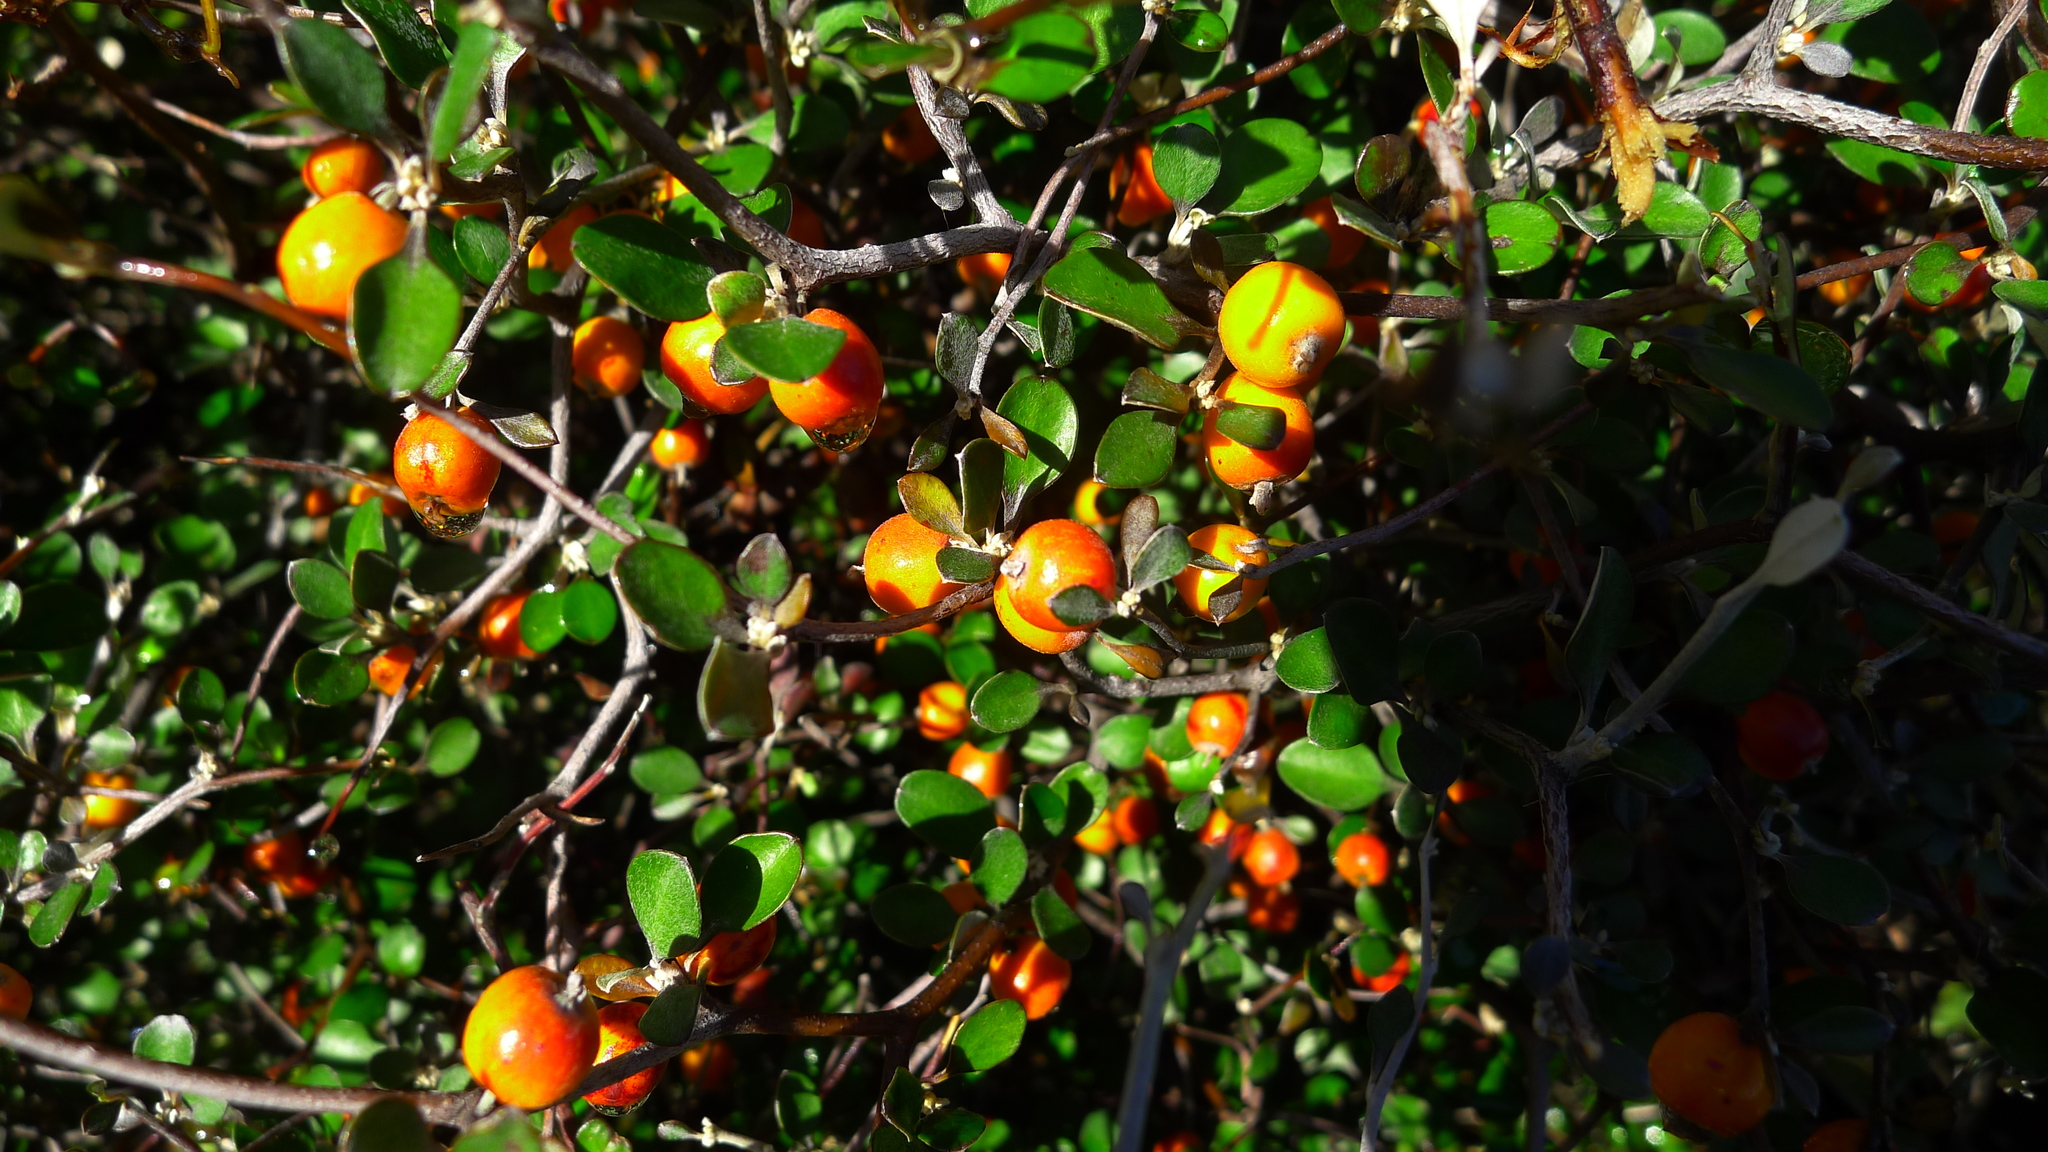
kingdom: Plantae
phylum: Tracheophyta
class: Magnoliopsida
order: Asterales
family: Argophyllaceae
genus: Corokia
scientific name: Corokia cotoneaster
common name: Wire nettingbush
